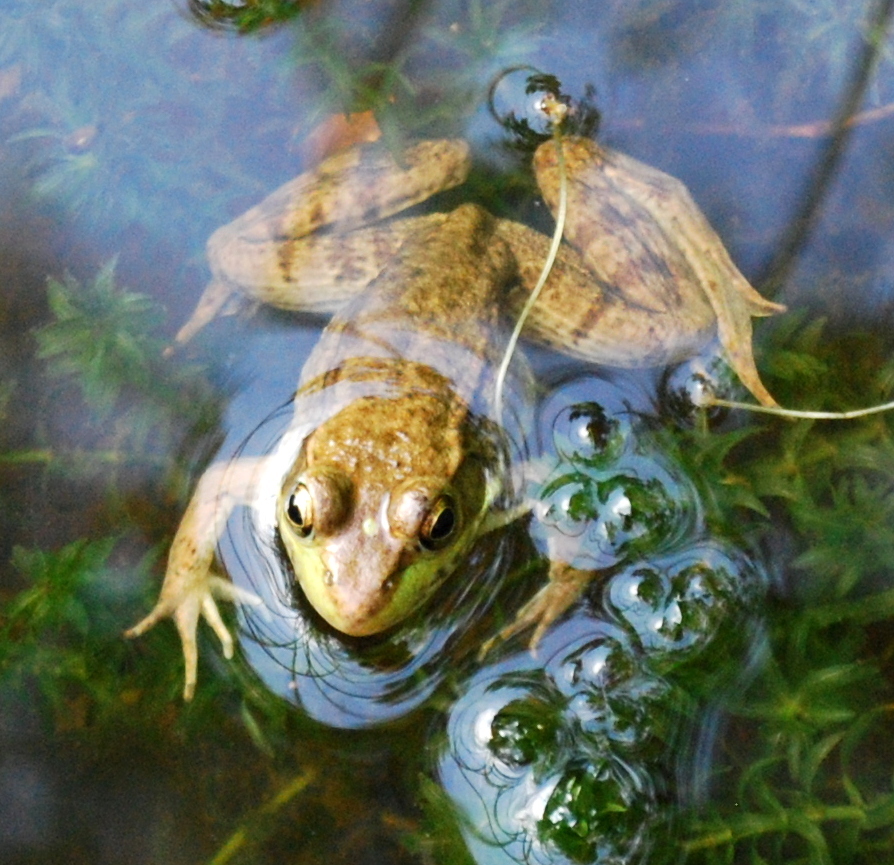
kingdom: Animalia
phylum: Chordata
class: Amphibia
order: Anura
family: Ranidae
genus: Lithobates
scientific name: Lithobates clamitans
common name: Green frog
